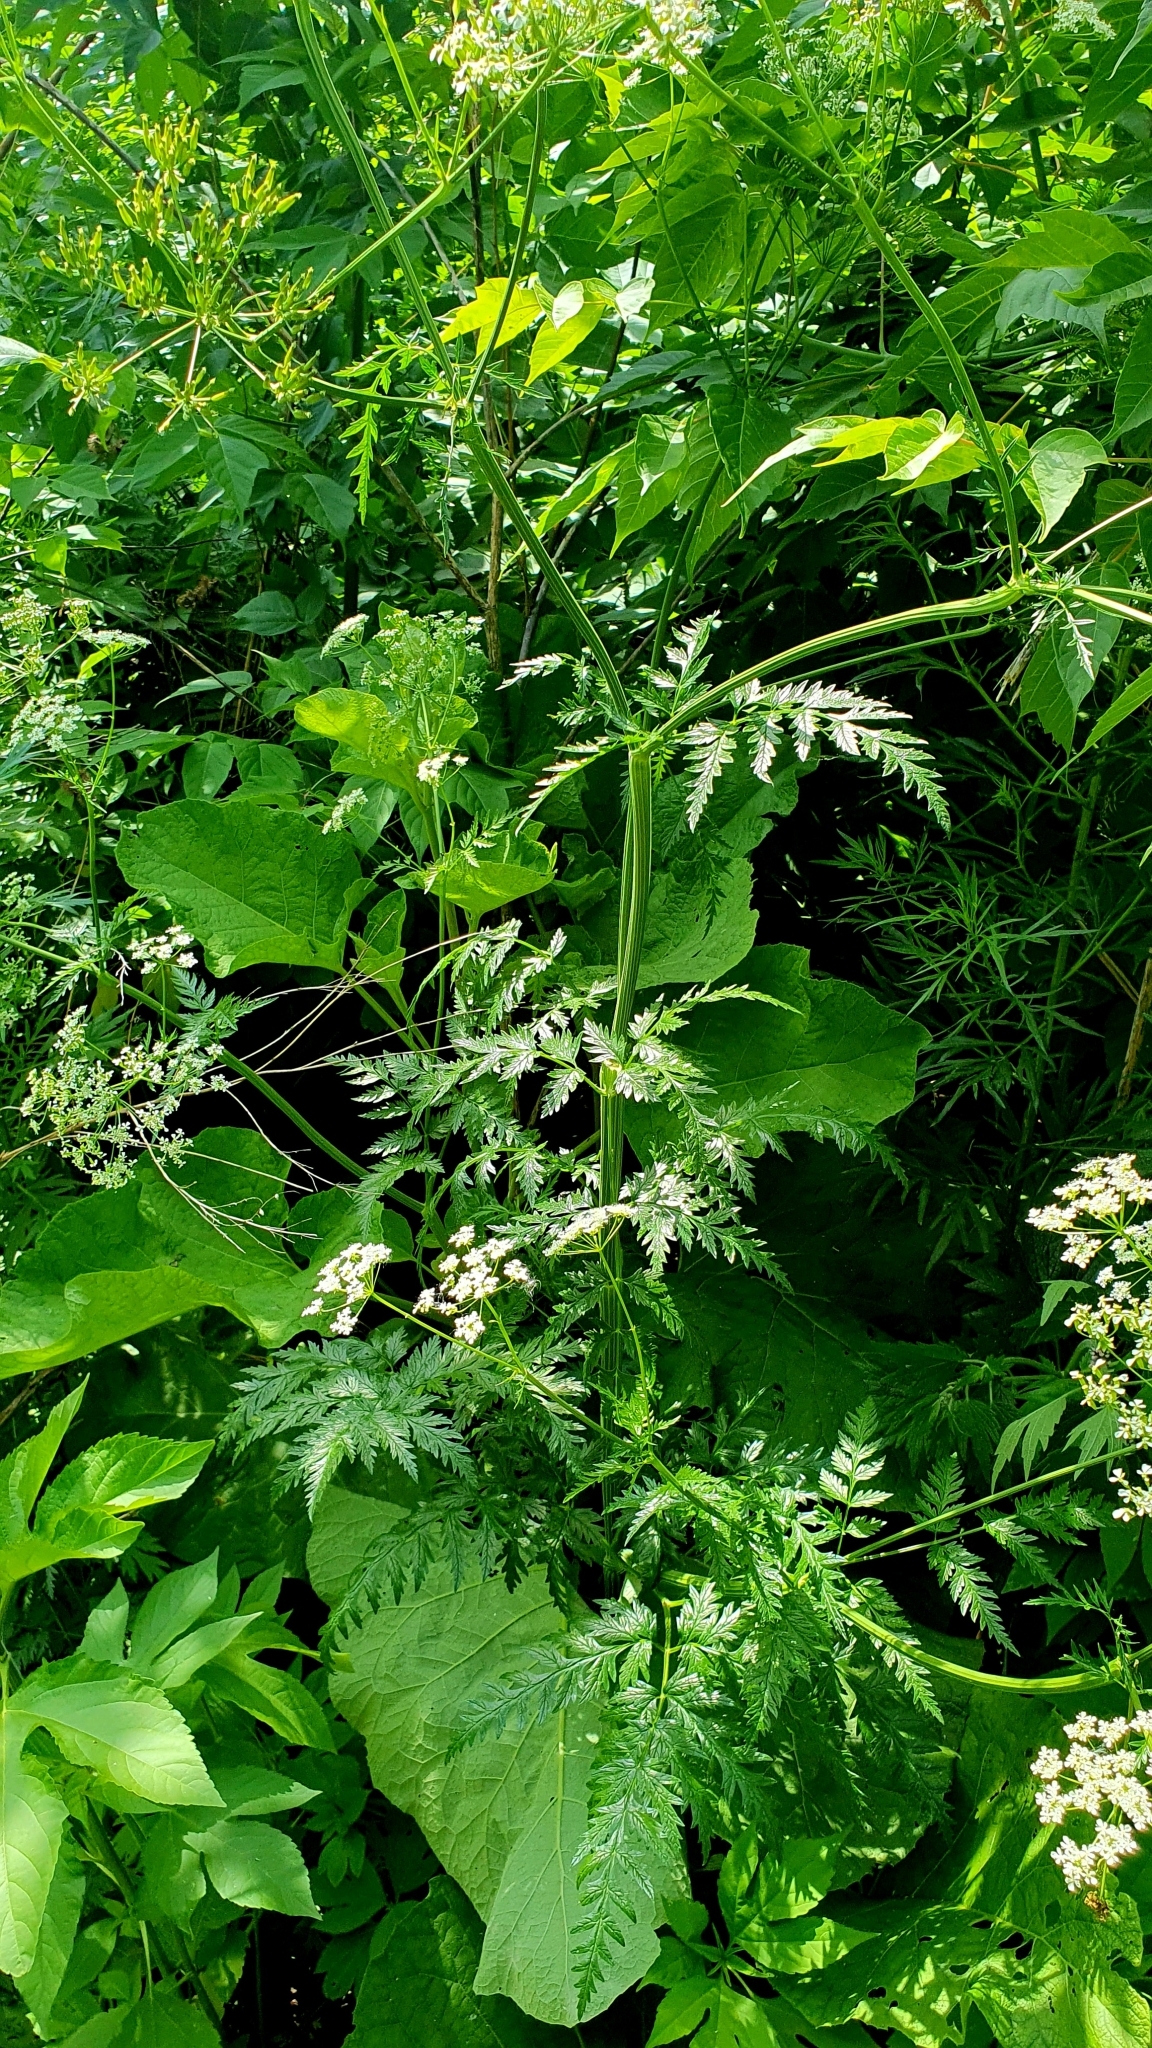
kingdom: Plantae
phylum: Tracheophyta
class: Magnoliopsida
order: Apiales
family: Apiaceae
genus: Anthriscus
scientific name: Anthriscus sylvestris
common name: Cow parsley
